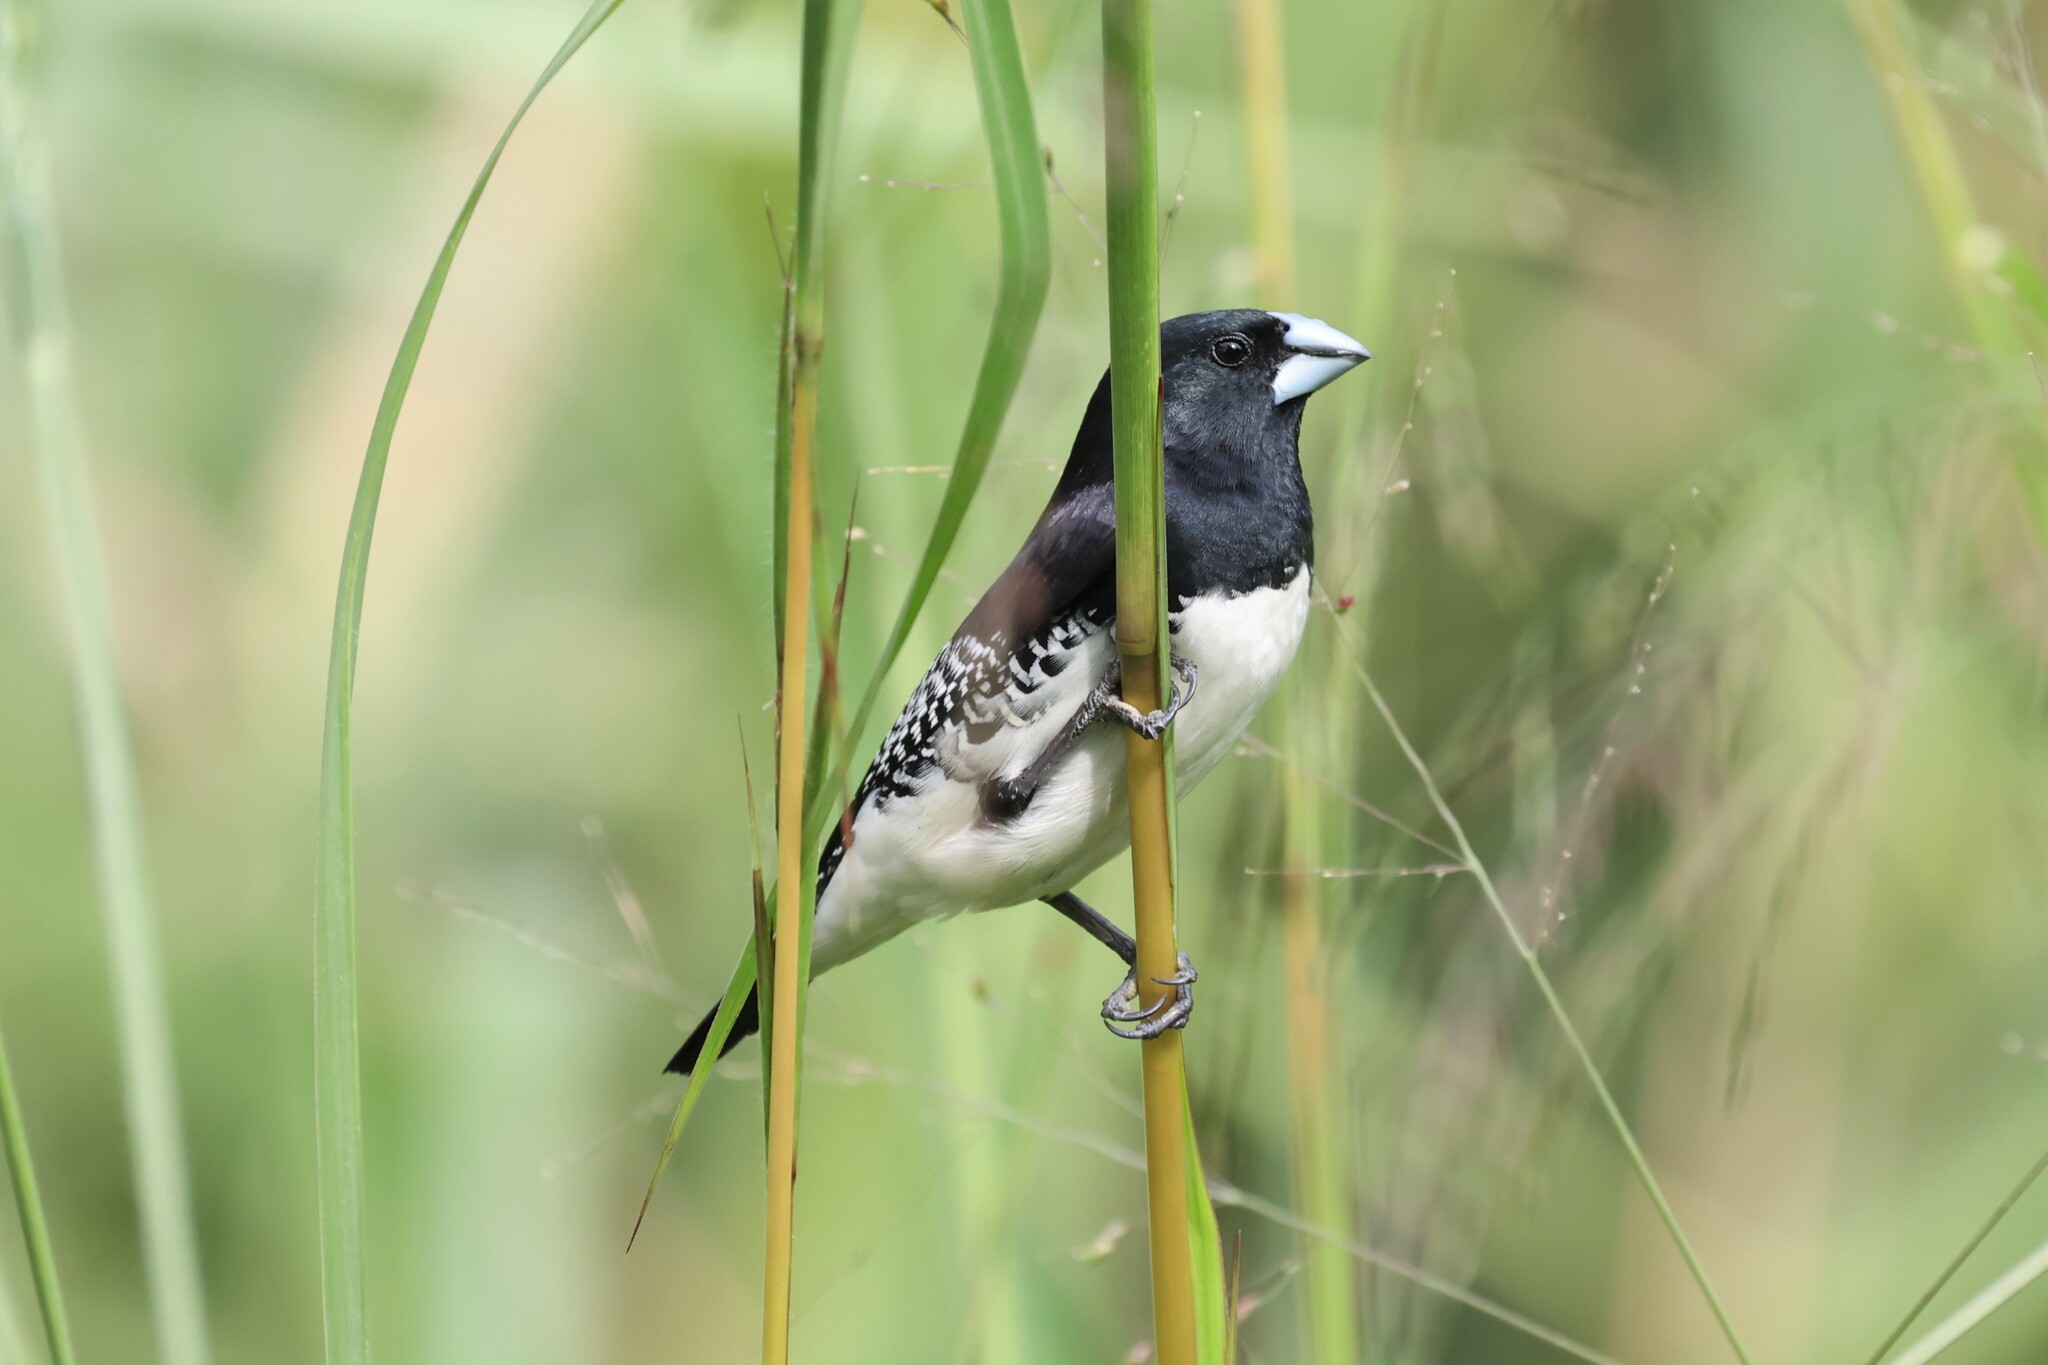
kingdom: Animalia
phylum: Chordata
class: Aves
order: Passeriformes
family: Estrildidae
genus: Lonchura
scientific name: Lonchura bicolor
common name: Black-and-white mannikin
